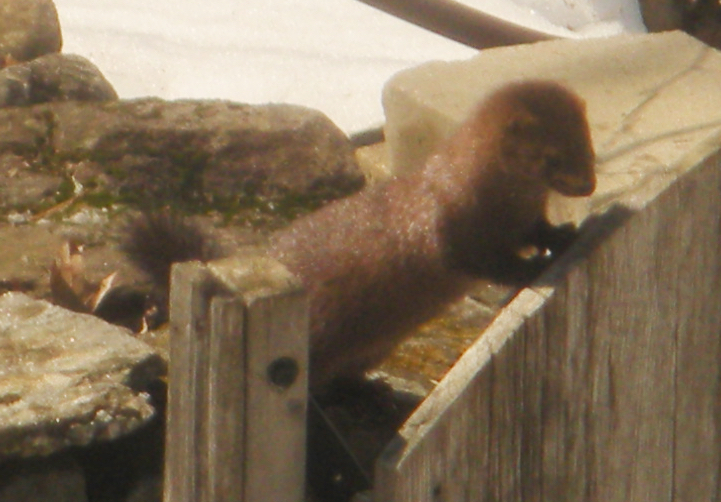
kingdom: Animalia
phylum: Chordata
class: Mammalia
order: Carnivora
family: Mustelidae
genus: Mustela
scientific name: Mustela
